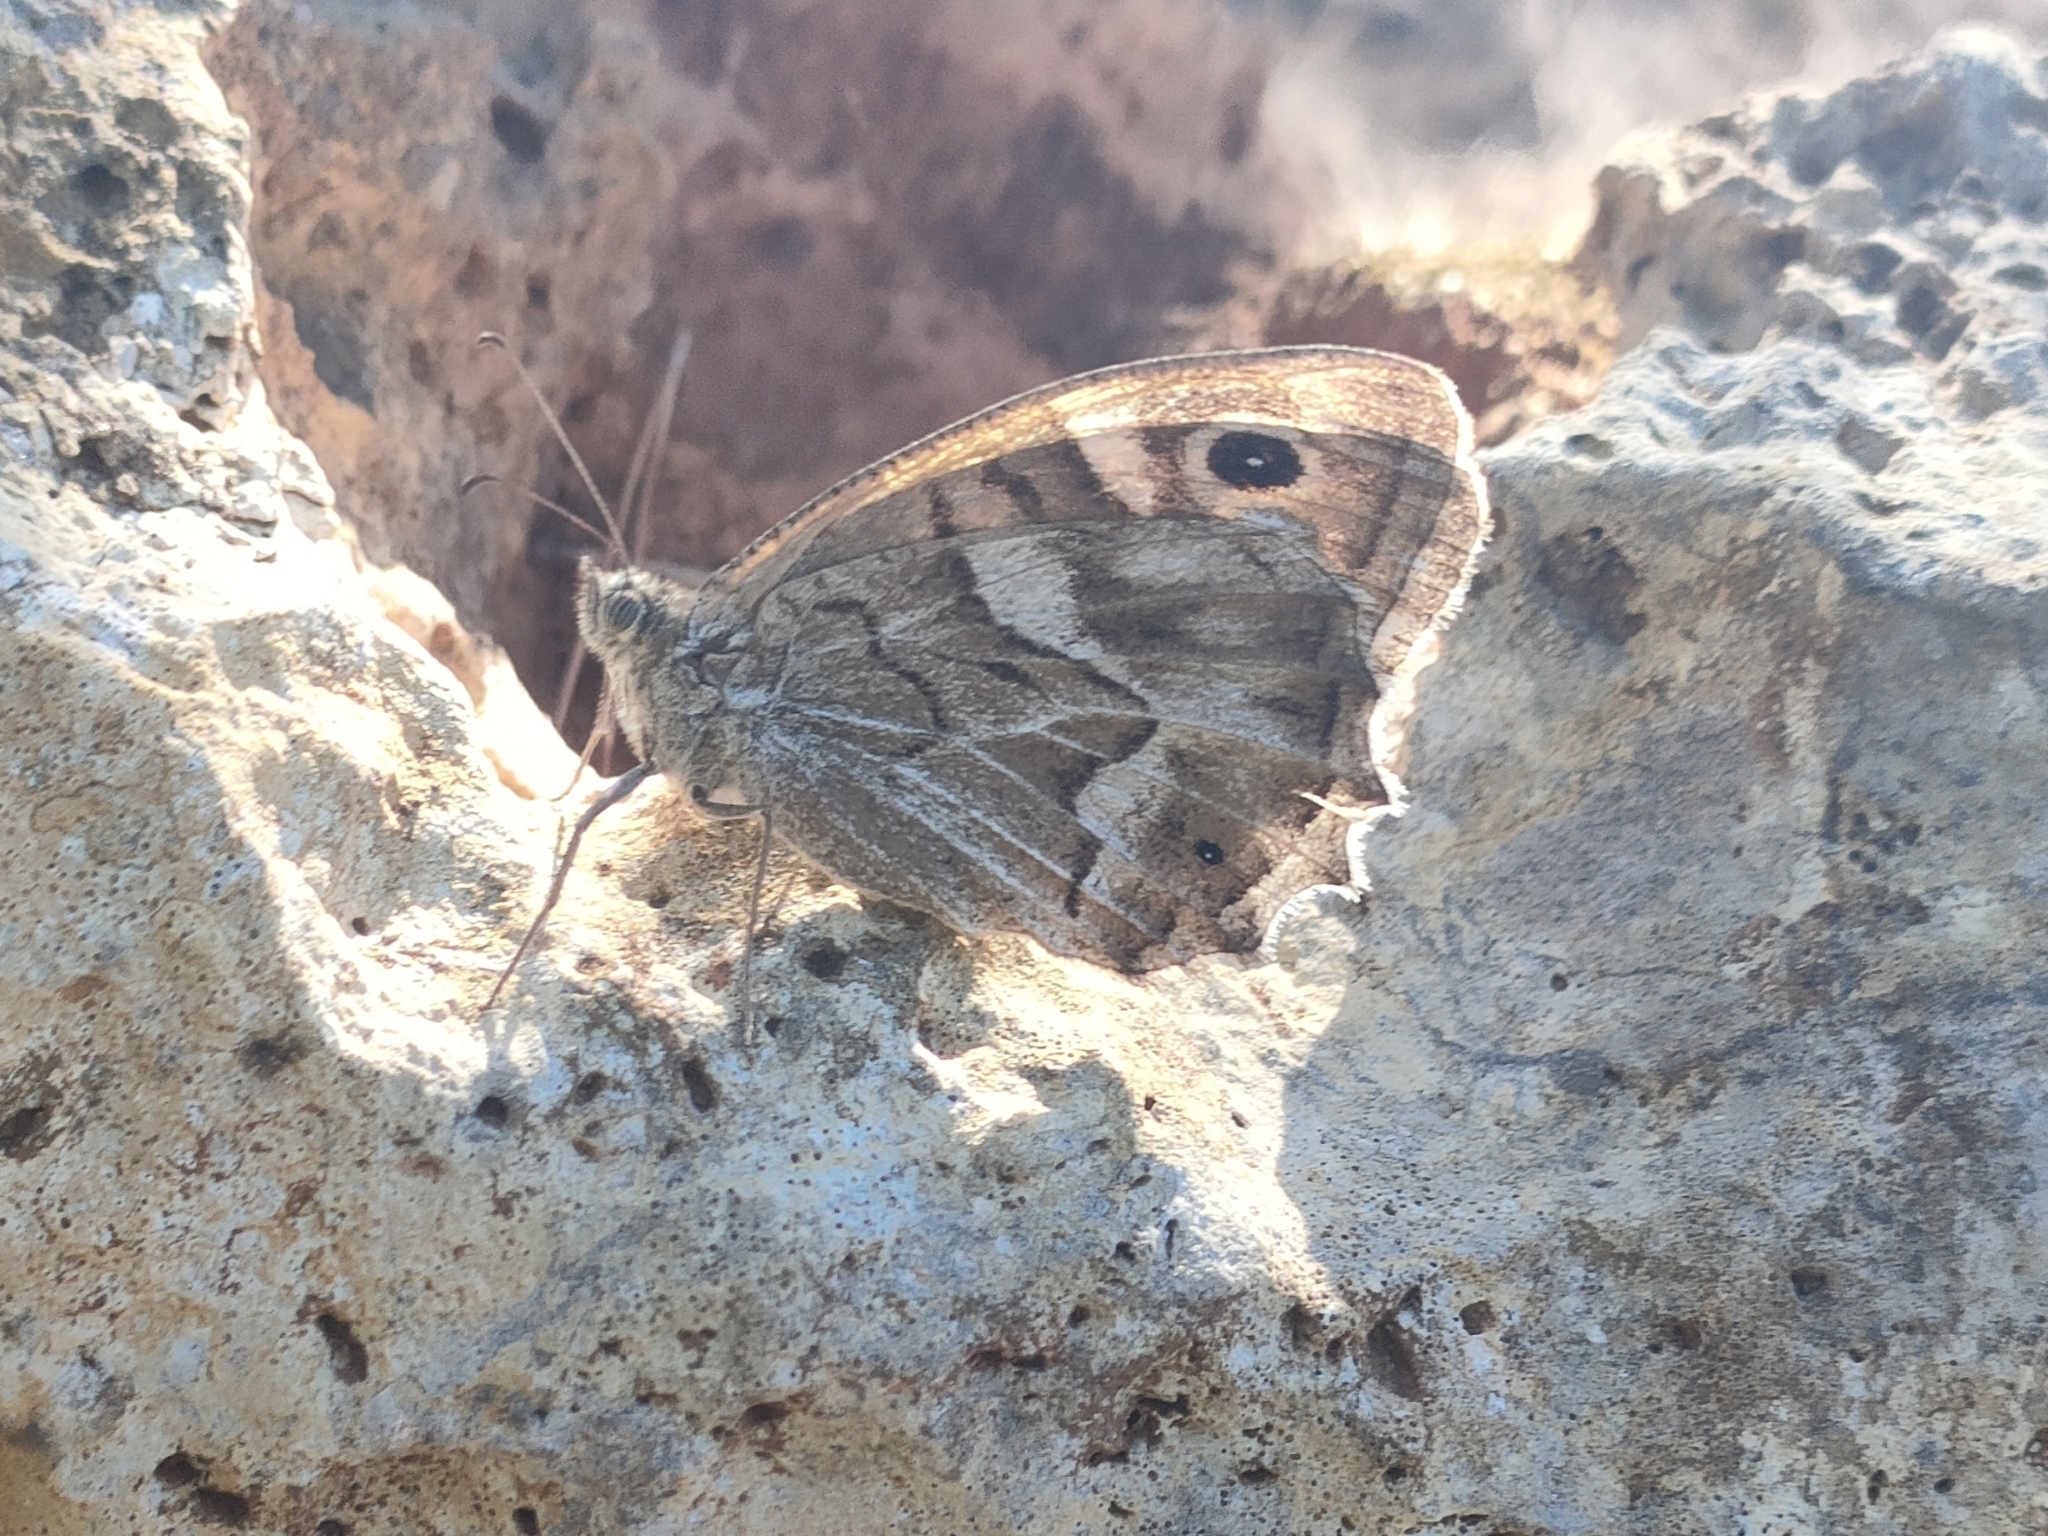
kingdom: Animalia
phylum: Arthropoda
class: Insecta
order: Lepidoptera
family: Nymphalidae
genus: Hipparchia
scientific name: Hipparchia fidia
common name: Striped grayling
